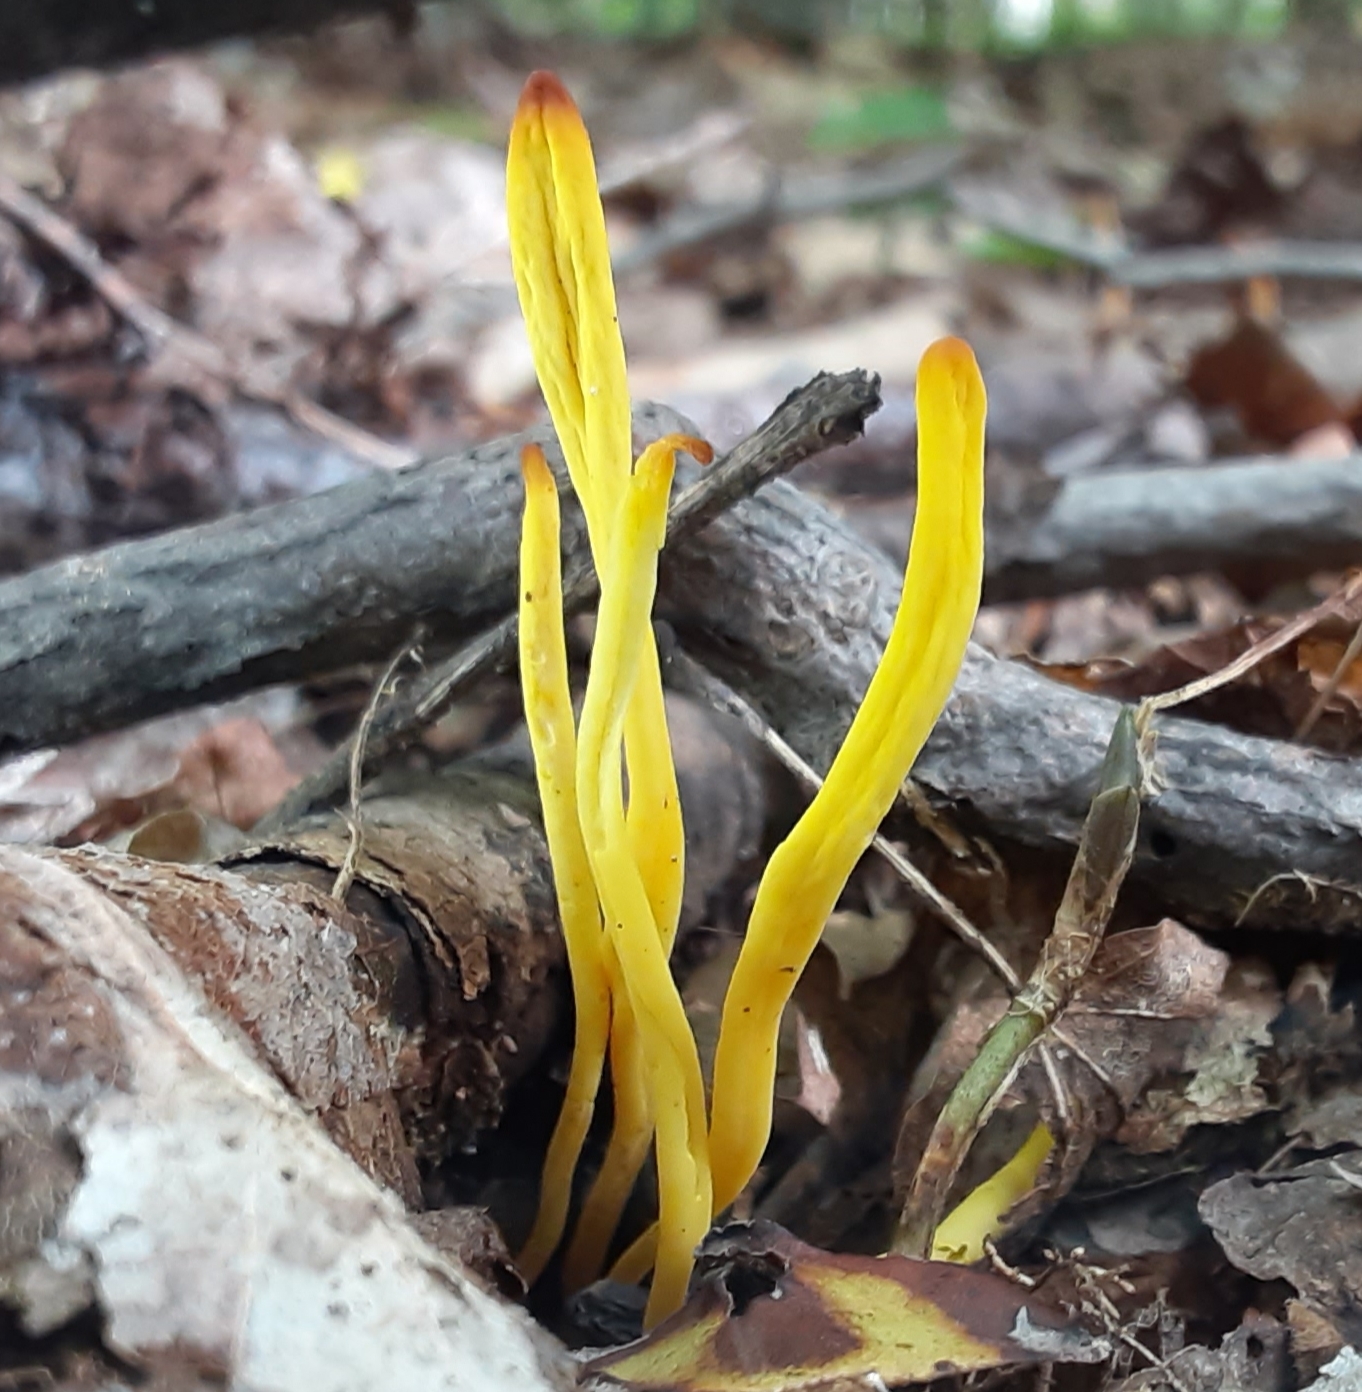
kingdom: Fungi
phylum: Basidiomycota
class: Agaricomycetes
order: Agaricales
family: Clavariaceae
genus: Clavulinopsis
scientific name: Clavulinopsis fusiformis
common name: Golden spindles
